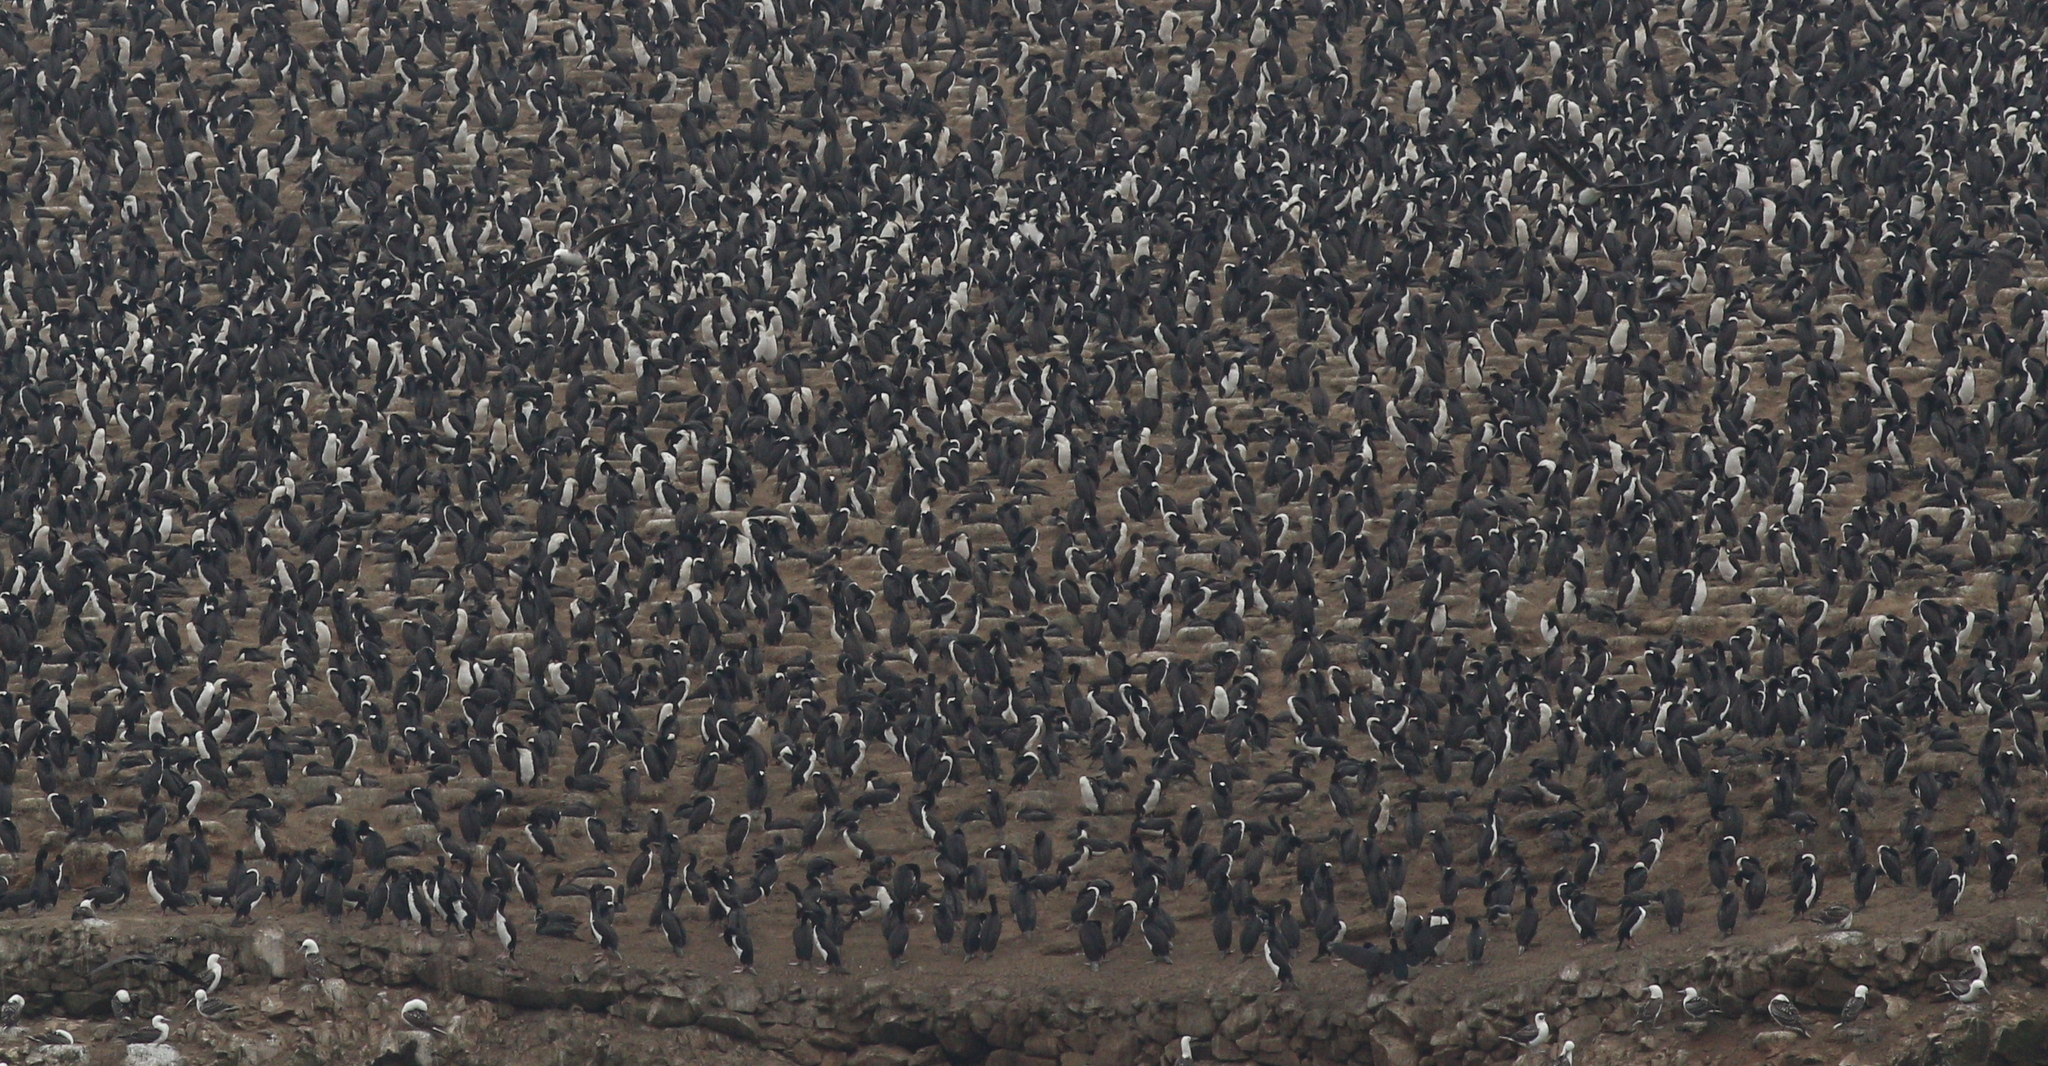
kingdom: Animalia
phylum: Chordata
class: Aves
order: Suliformes
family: Phalacrocoracidae
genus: Leucocarbo
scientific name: Leucocarbo bougainvillii
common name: Guanay cormorant
